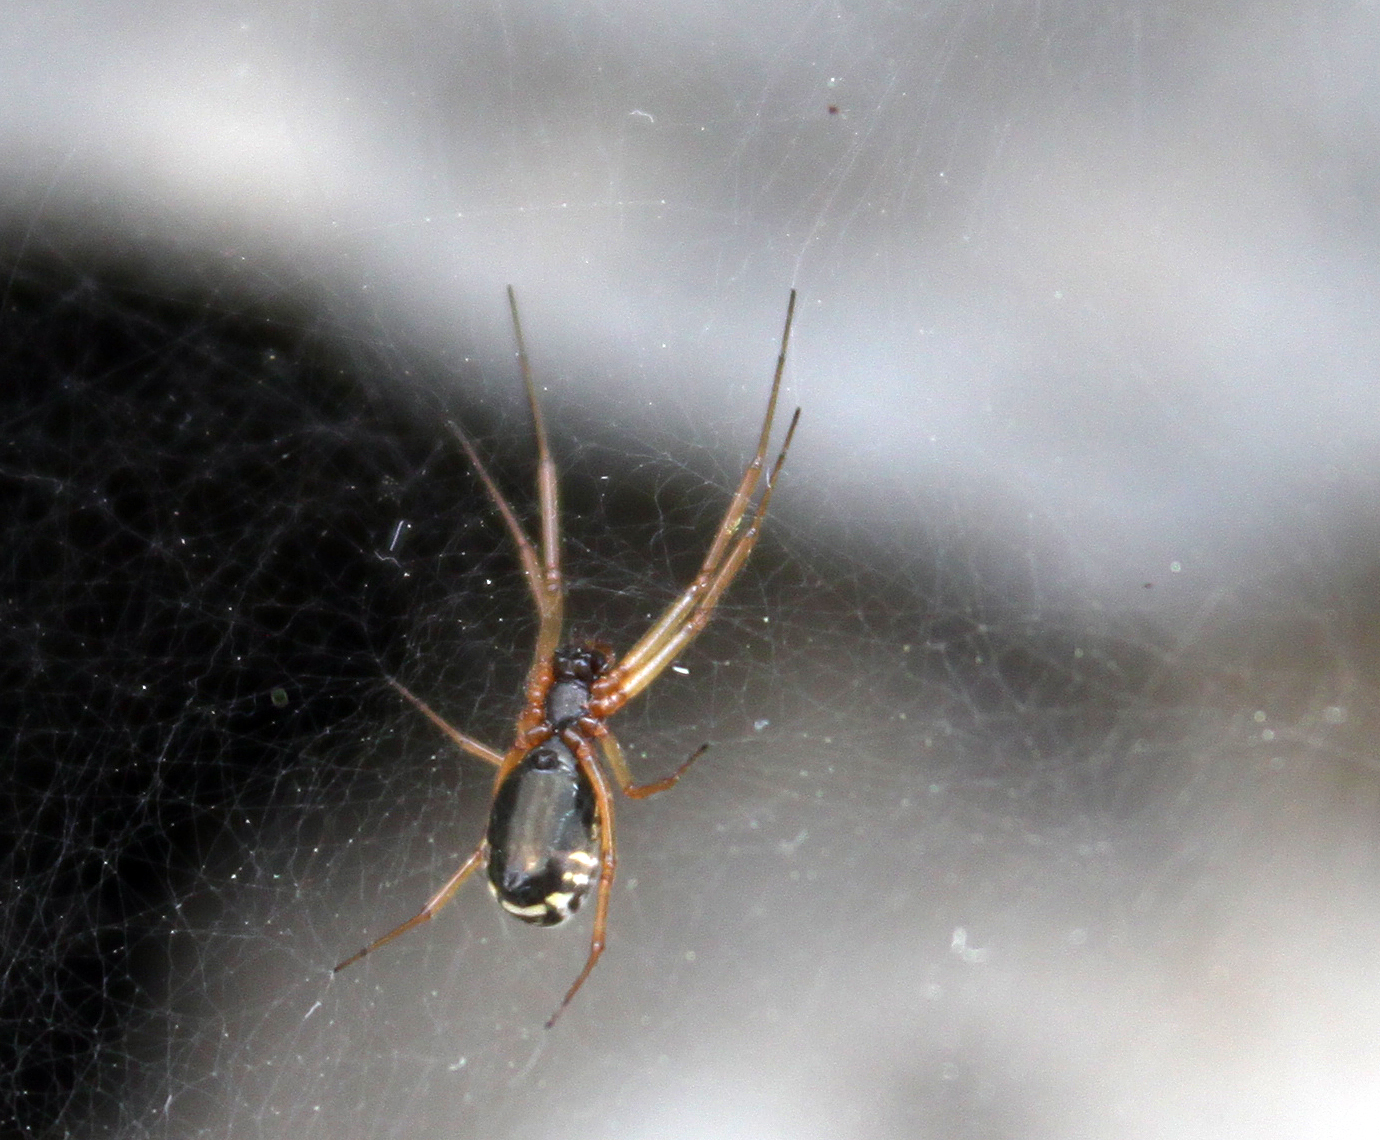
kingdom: Animalia
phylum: Arthropoda
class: Arachnida
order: Araneae
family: Linyphiidae
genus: Frontinellina
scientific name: Frontinellina frutetorum
